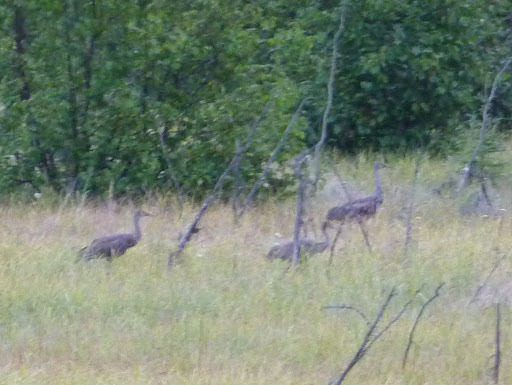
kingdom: Animalia
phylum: Chordata
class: Aves
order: Gruiformes
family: Gruidae
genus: Grus
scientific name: Grus canadensis
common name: Sandhill crane
